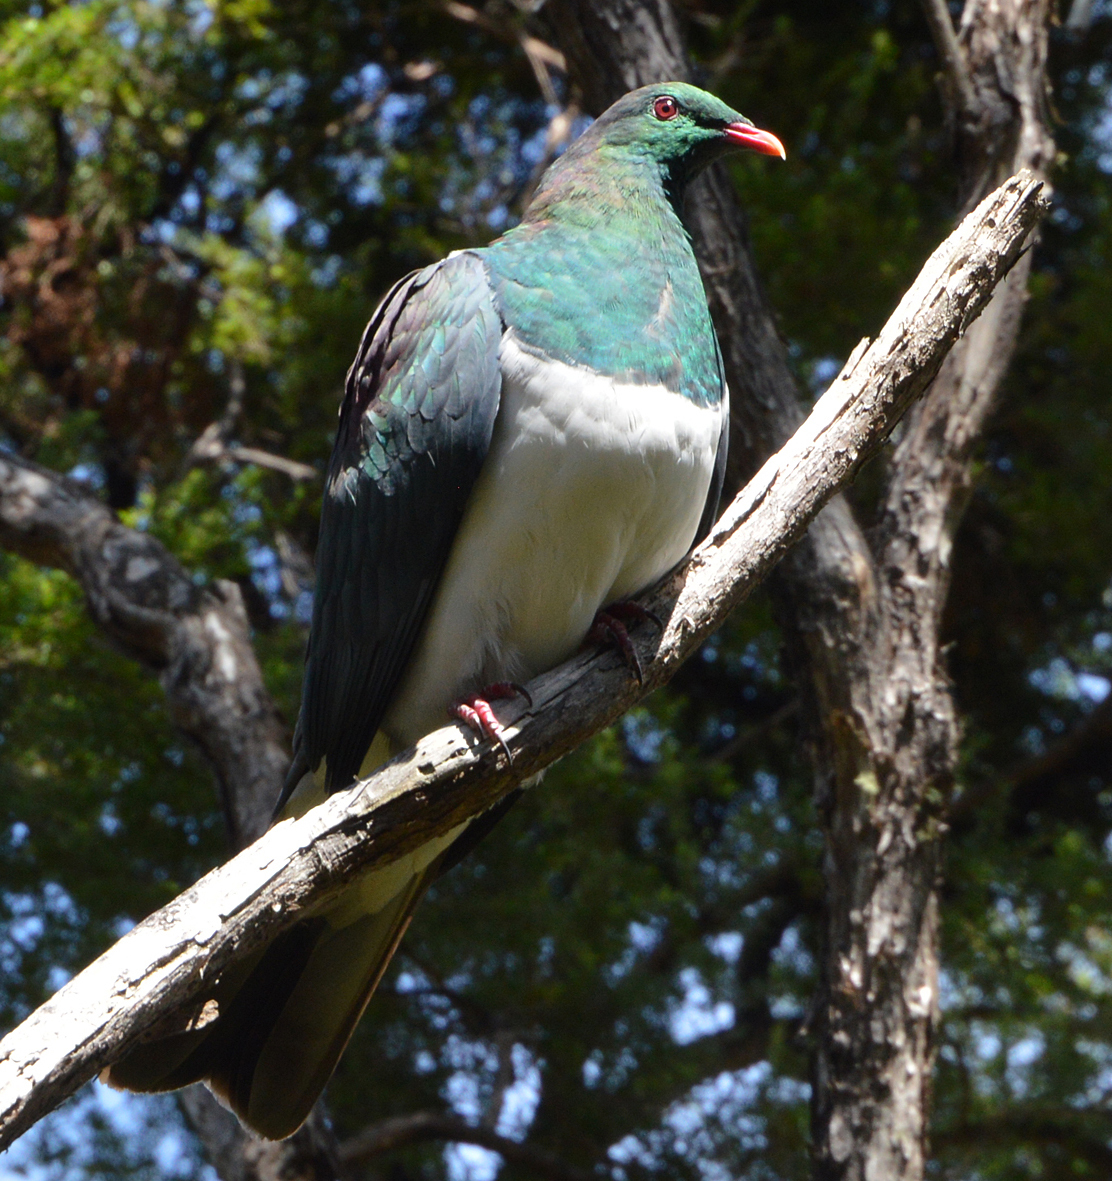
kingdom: Animalia
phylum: Chordata
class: Aves
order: Columbiformes
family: Columbidae
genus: Hemiphaga
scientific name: Hemiphaga novaeseelandiae
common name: New zealand pigeon
